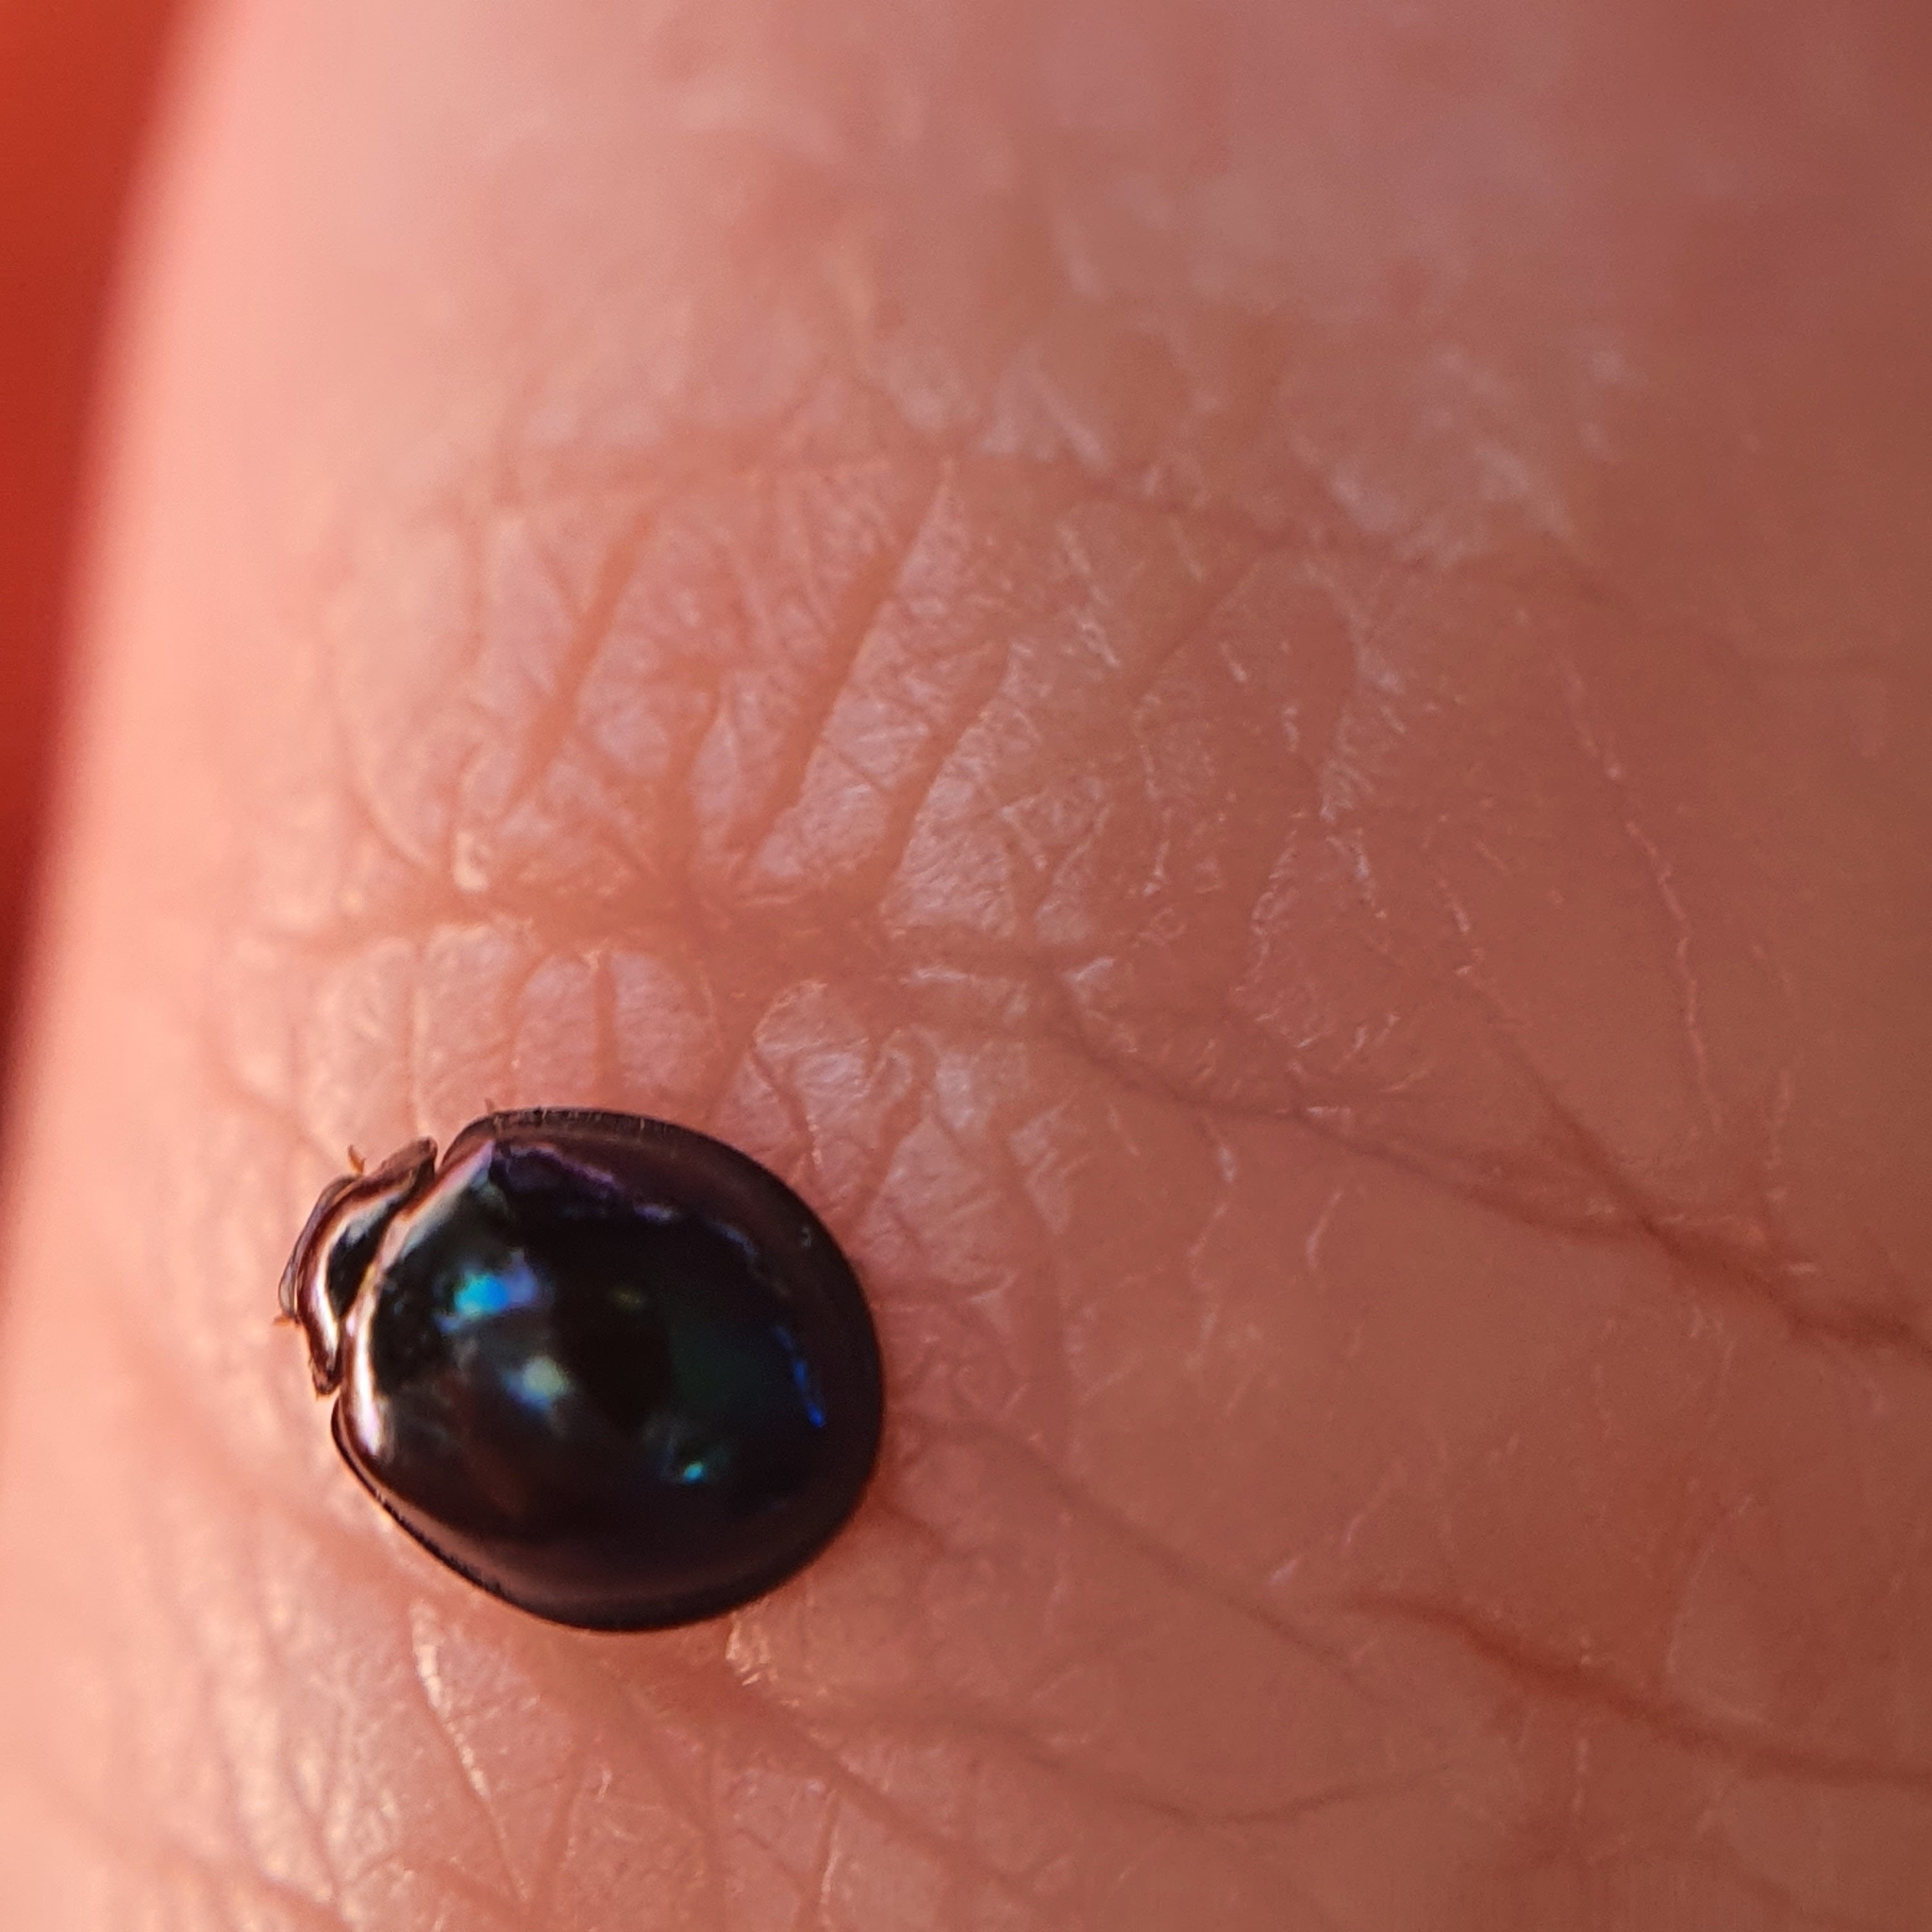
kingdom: Animalia
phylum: Arthropoda
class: Insecta
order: Coleoptera
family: Coccinellidae
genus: Halmus
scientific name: Halmus chalybeus
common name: Steel blue ladybird beetle
